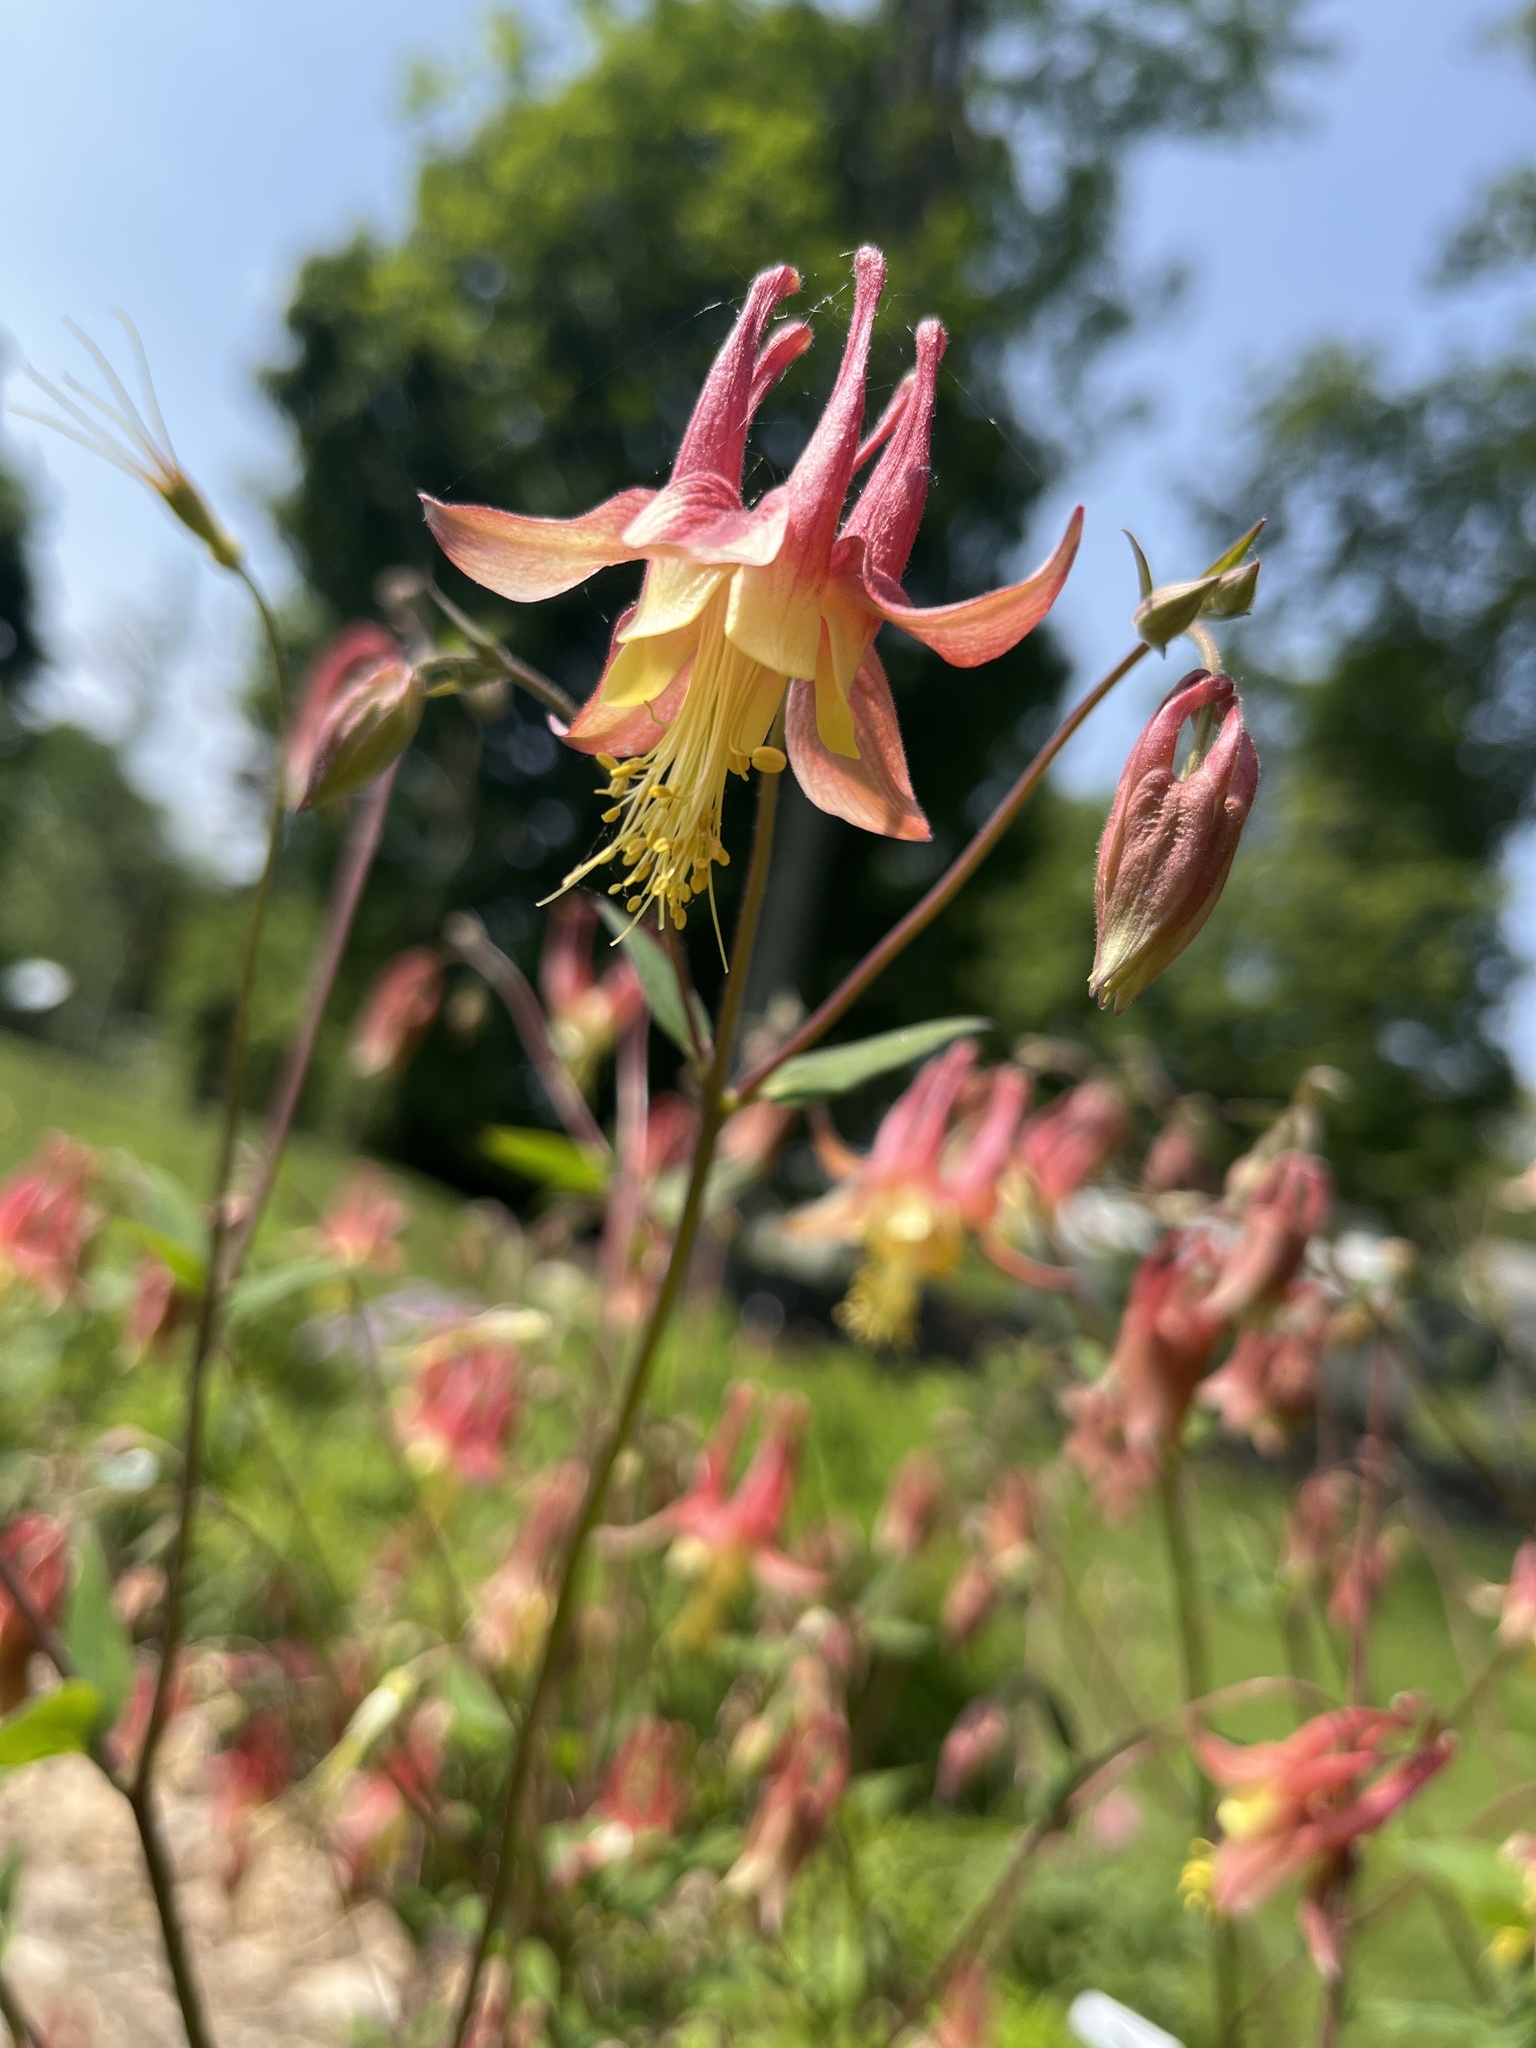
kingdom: Plantae
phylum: Tracheophyta
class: Magnoliopsida
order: Ranunculales
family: Ranunculaceae
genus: Aquilegia
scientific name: Aquilegia canadensis
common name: American columbine
